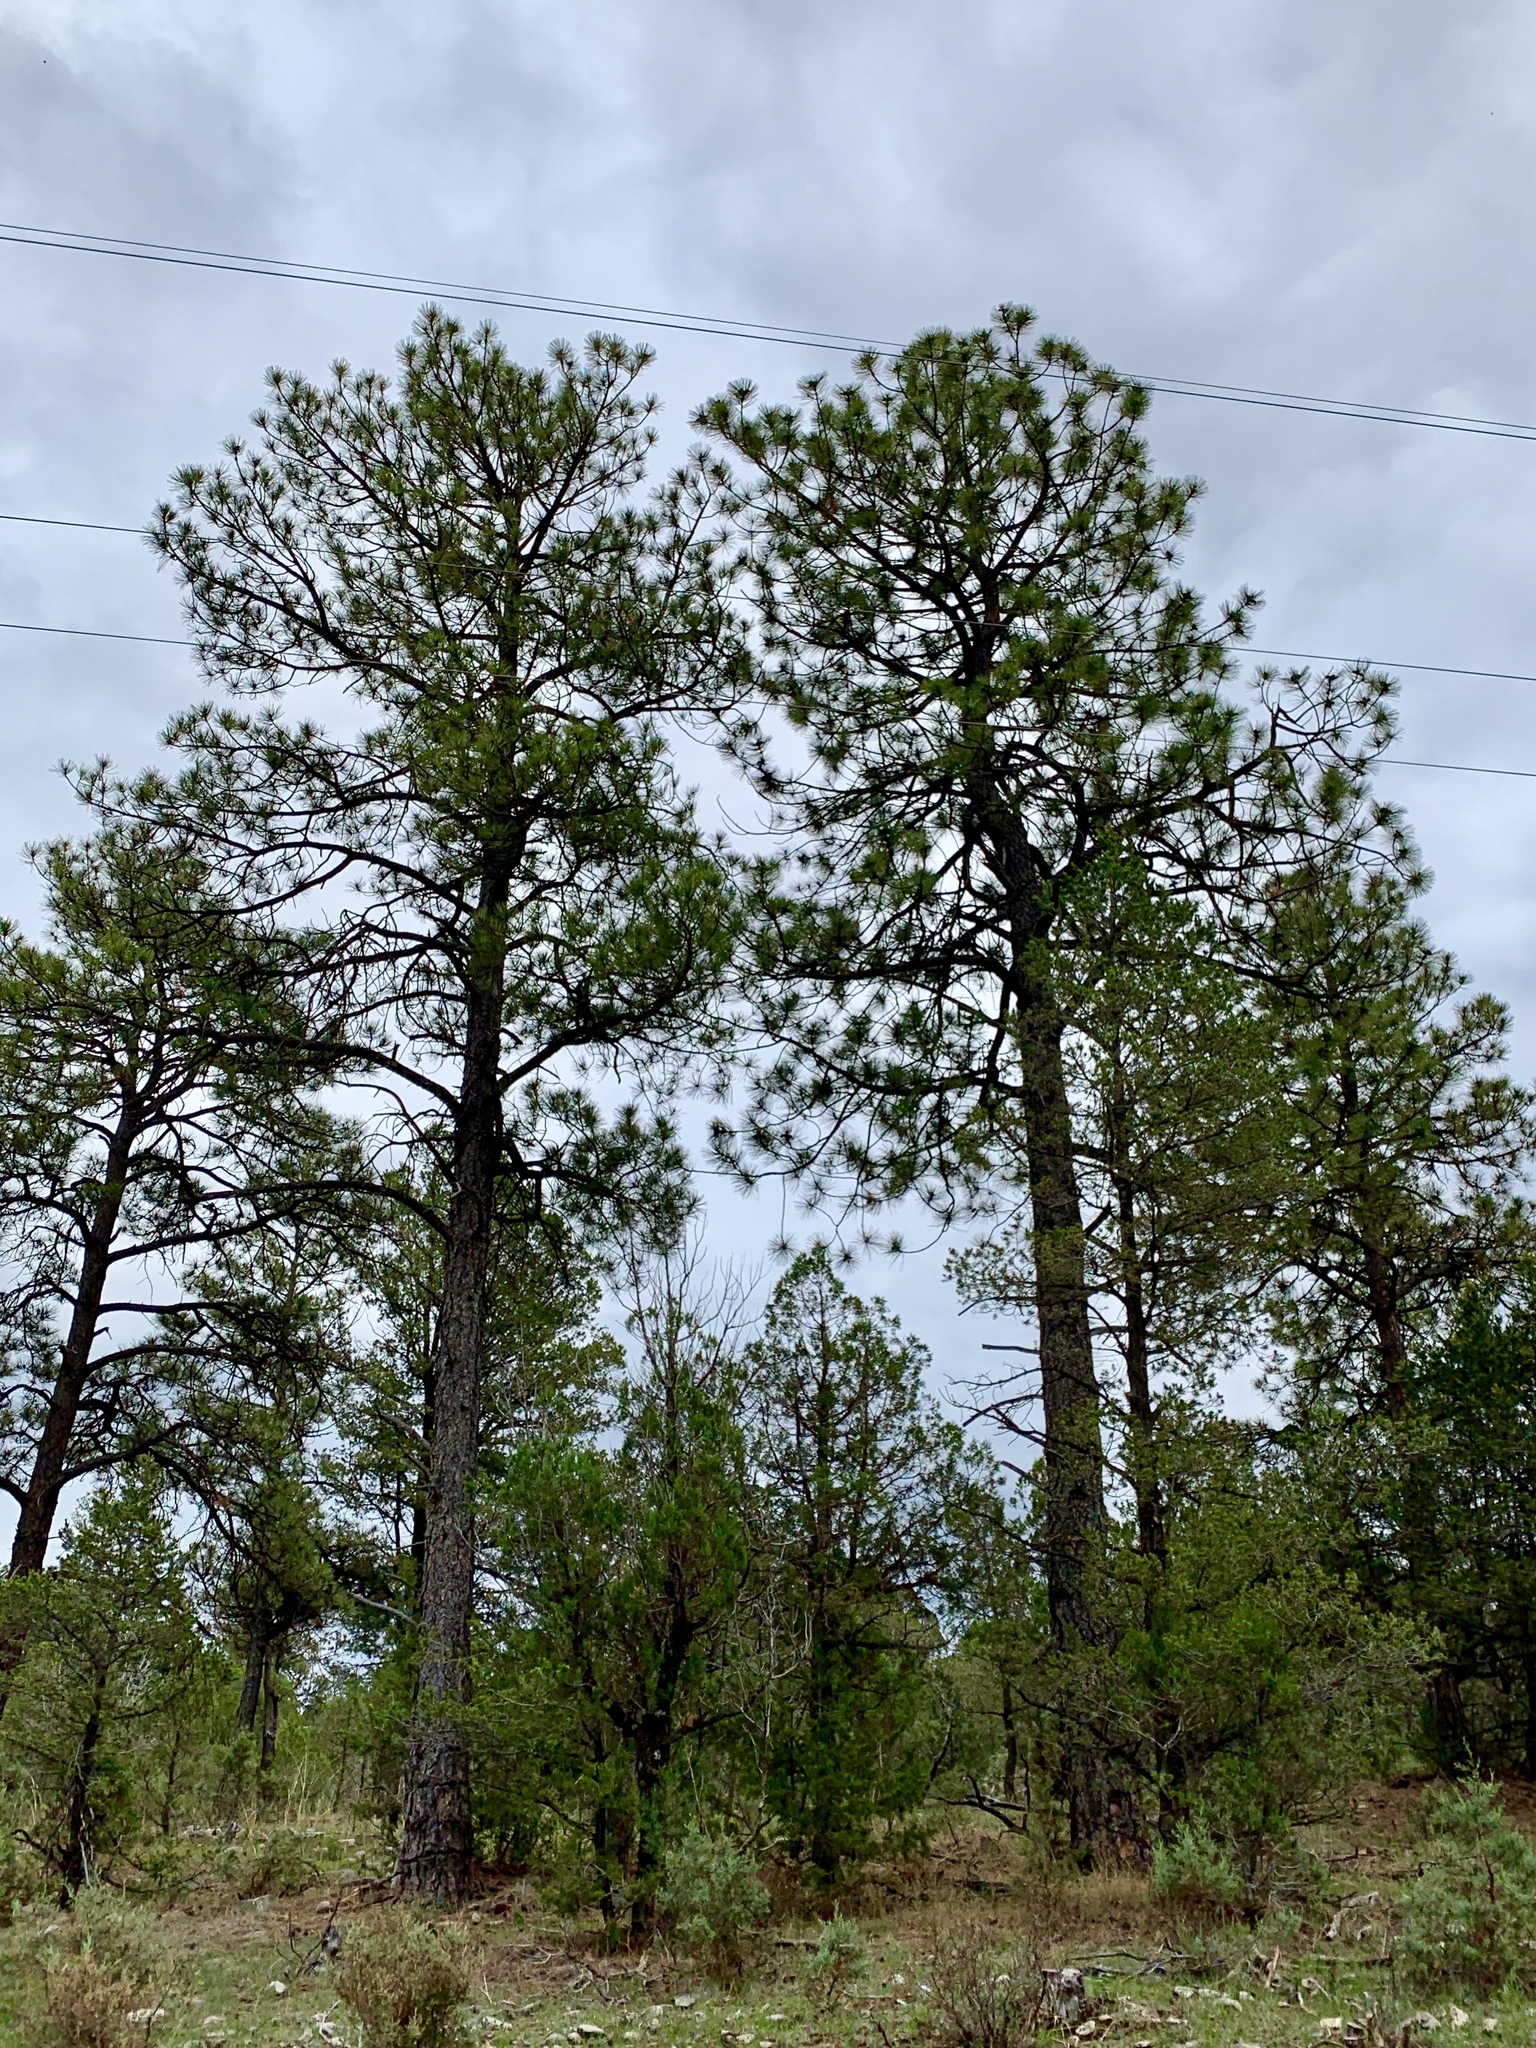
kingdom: Plantae
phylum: Tracheophyta
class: Pinopsida
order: Pinales
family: Pinaceae
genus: Pinus
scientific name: Pinus ponderosa
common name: Western yellow-pine
